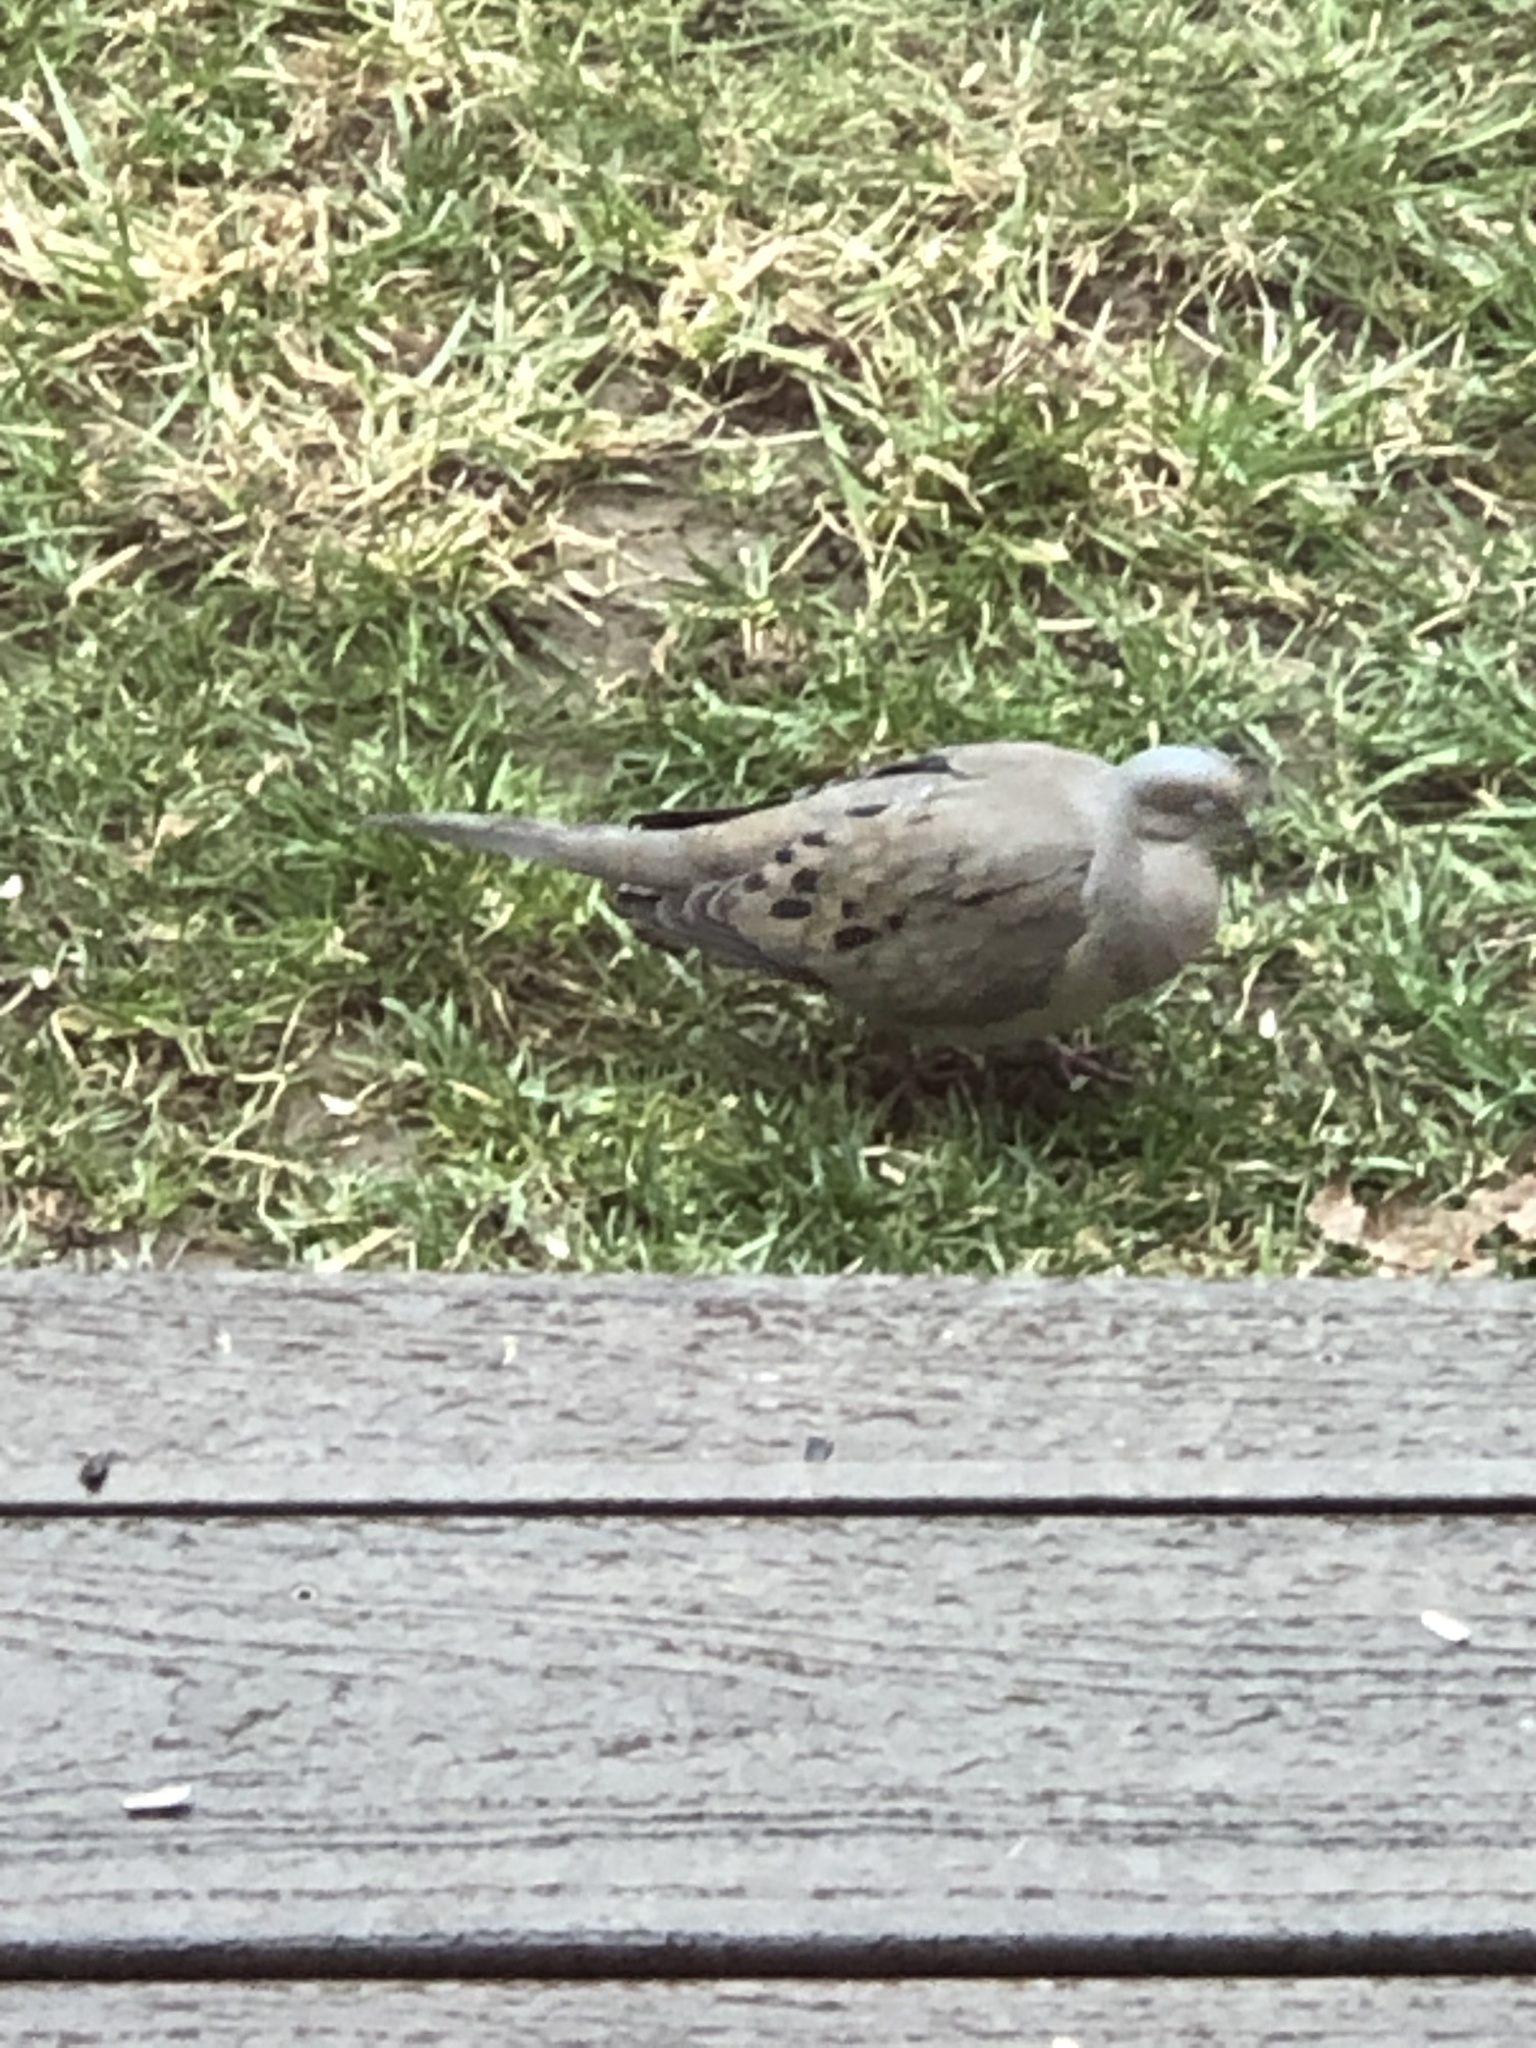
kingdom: Animalia
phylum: Chordata
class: Aves
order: Columbiformes
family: Columbidae
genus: Zenaida
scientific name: Zenaida macroura
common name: Mourning dove
